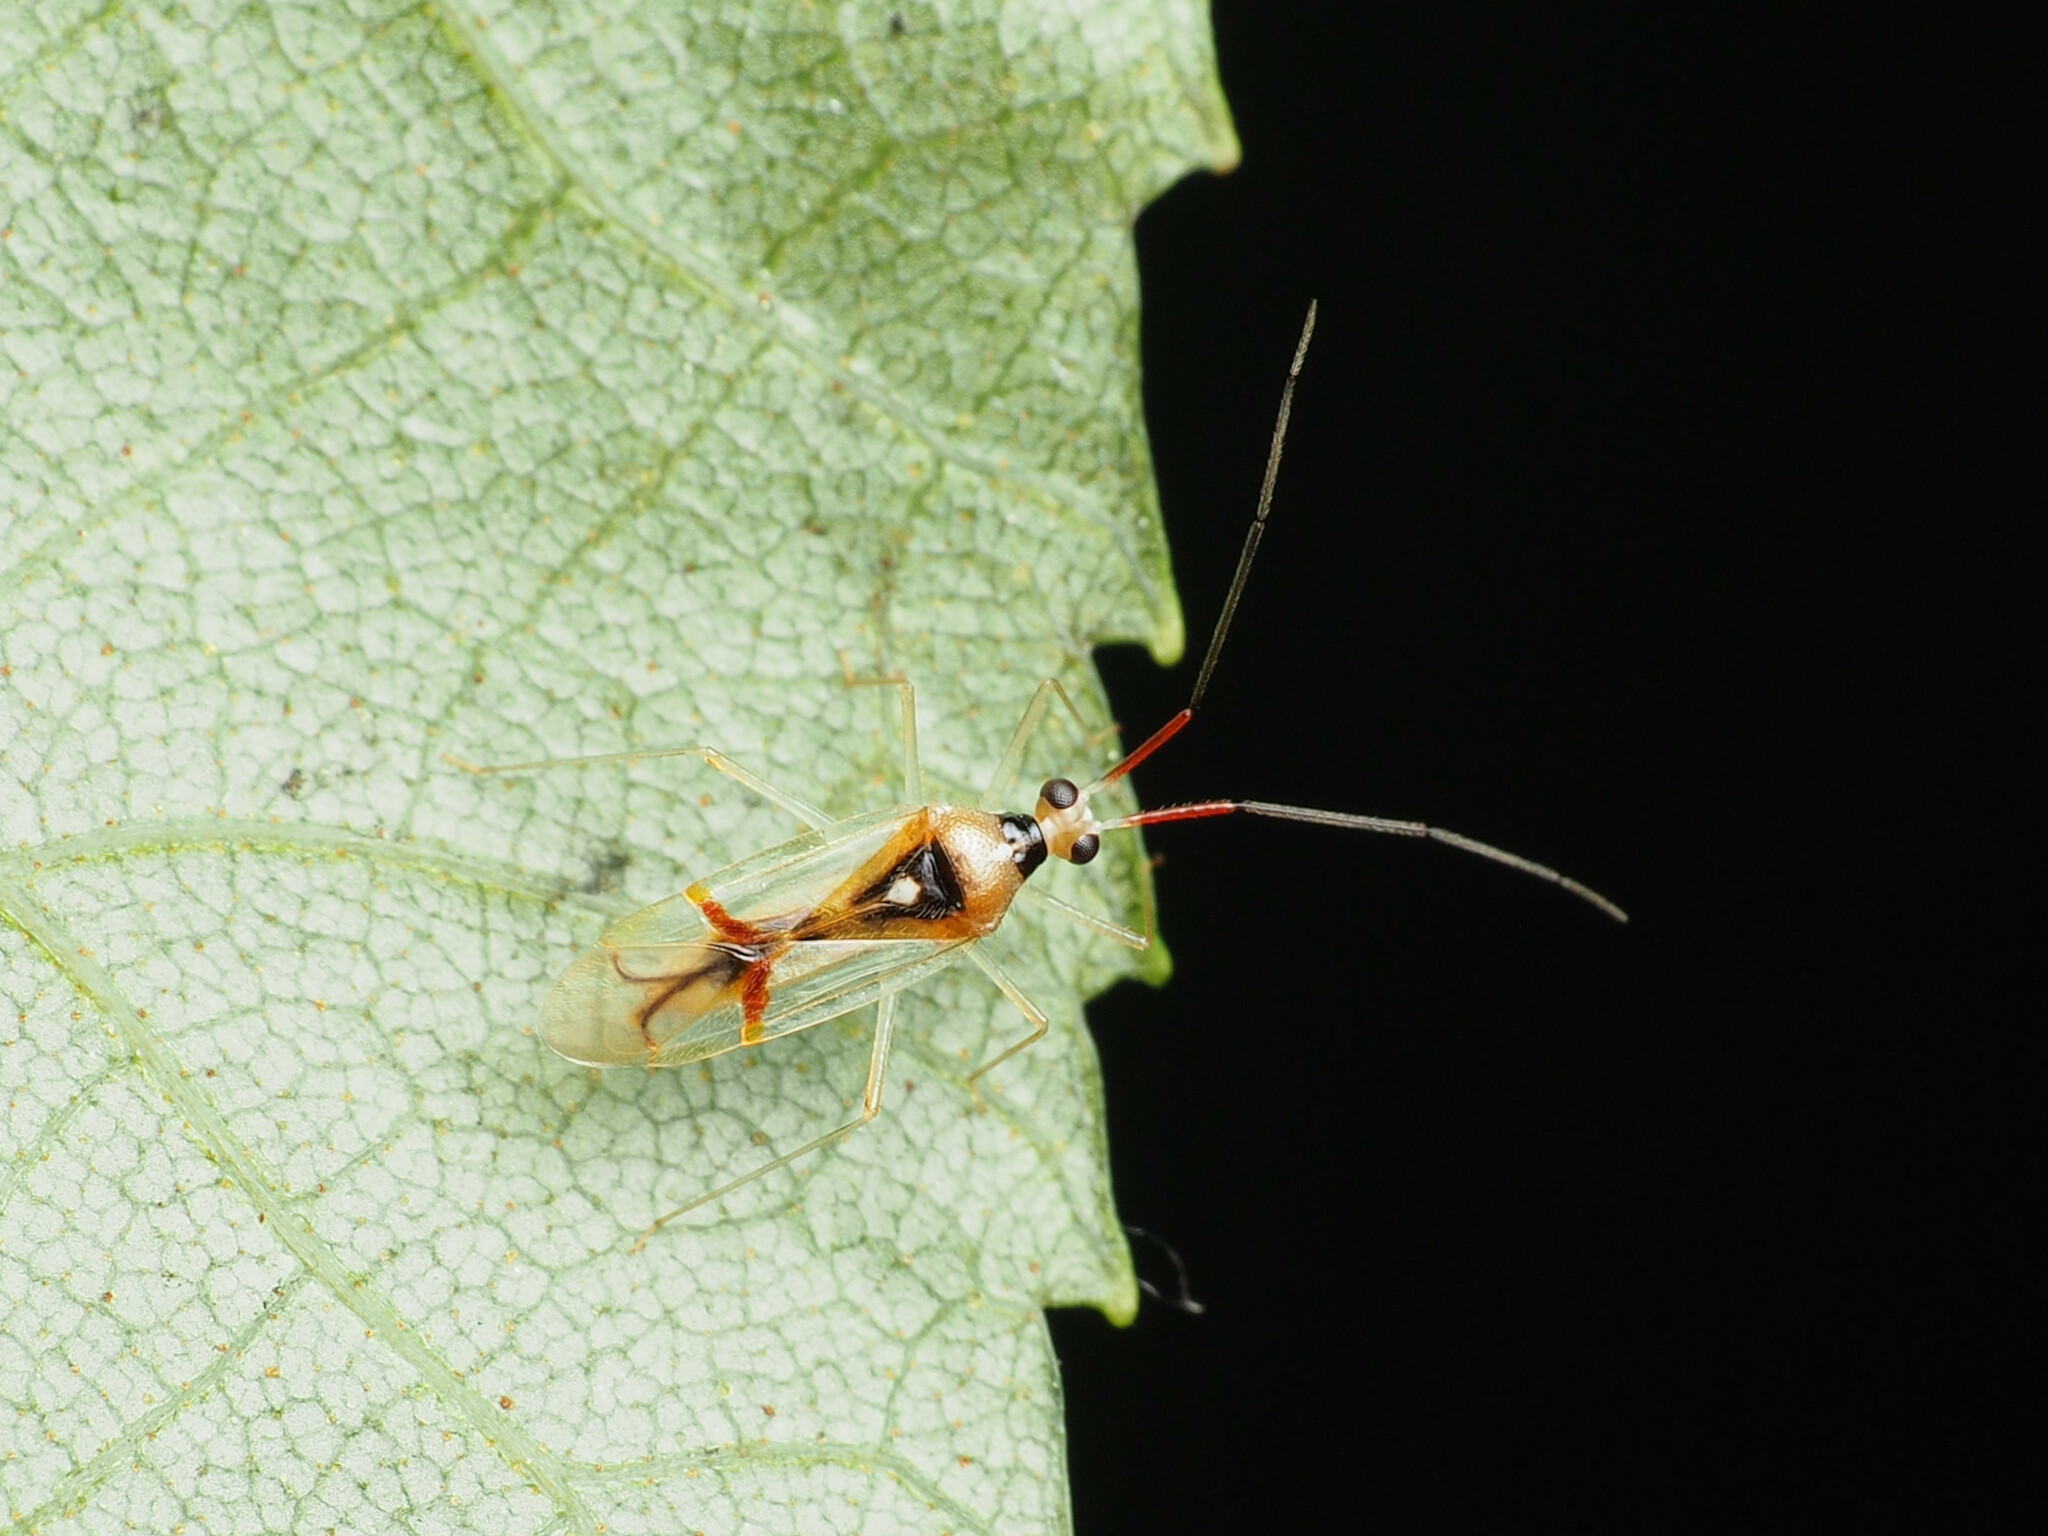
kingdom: Animalia
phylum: Arthropoda
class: Insecta
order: Hemiptera
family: Miridae
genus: Hyaliodes
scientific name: Hyaliodes harti
